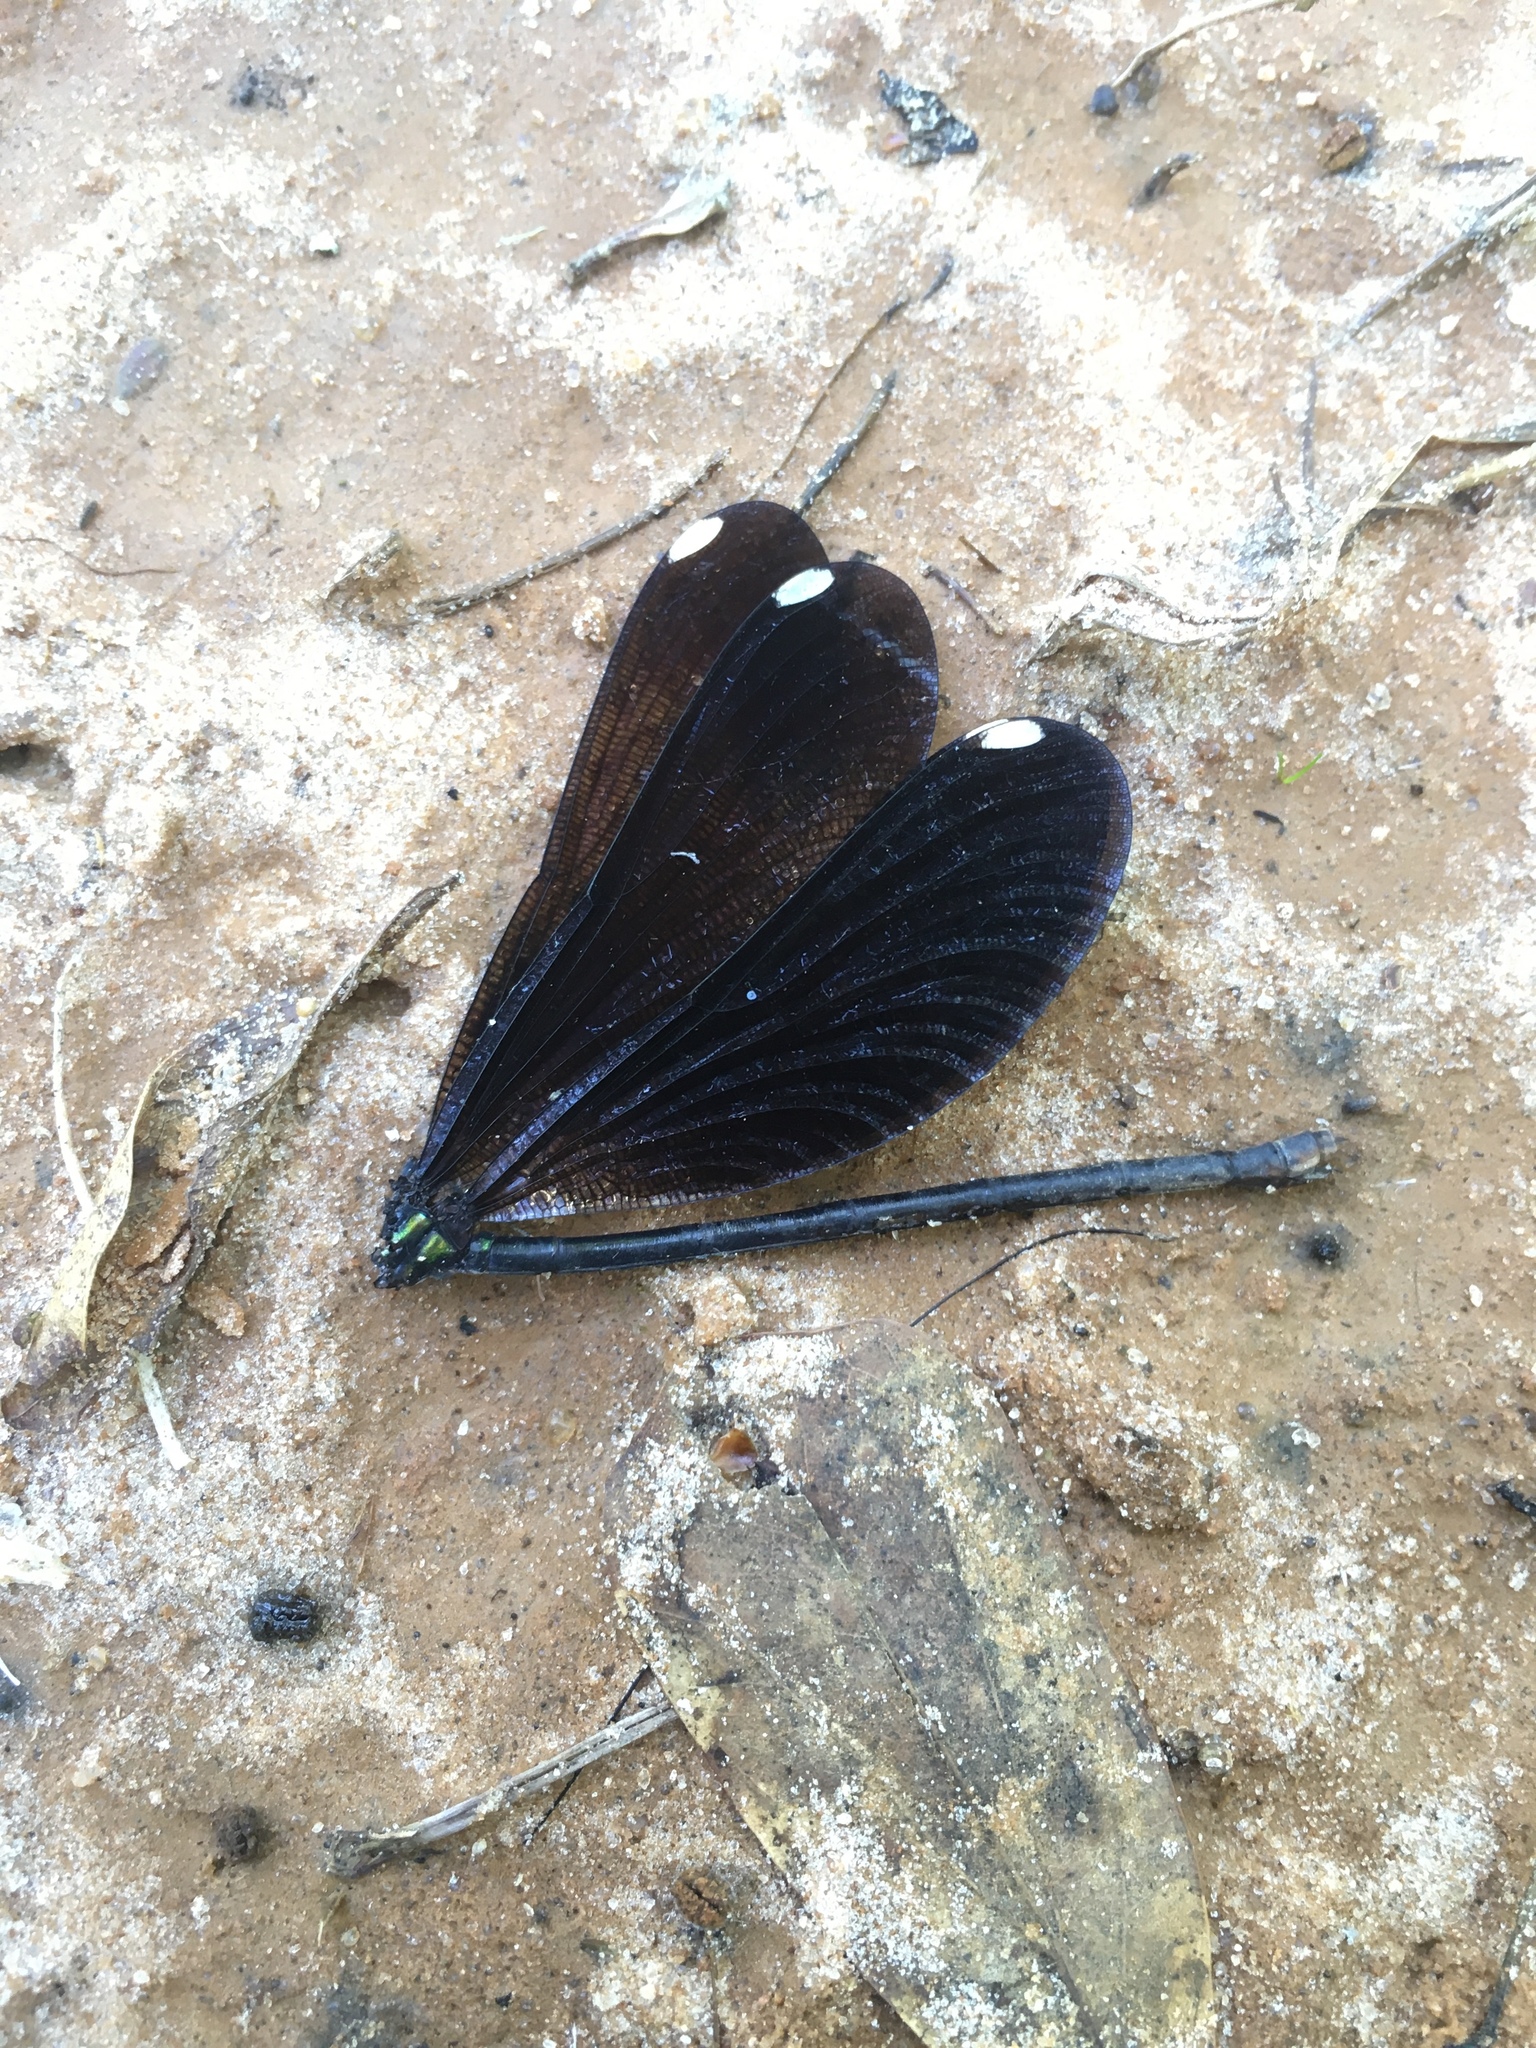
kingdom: Animalia
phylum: Arthropoda
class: Insecta
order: Odonata
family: Calopterygidae
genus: Calopteryx
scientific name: Calopteryx maculata
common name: Ebony jewelwing
